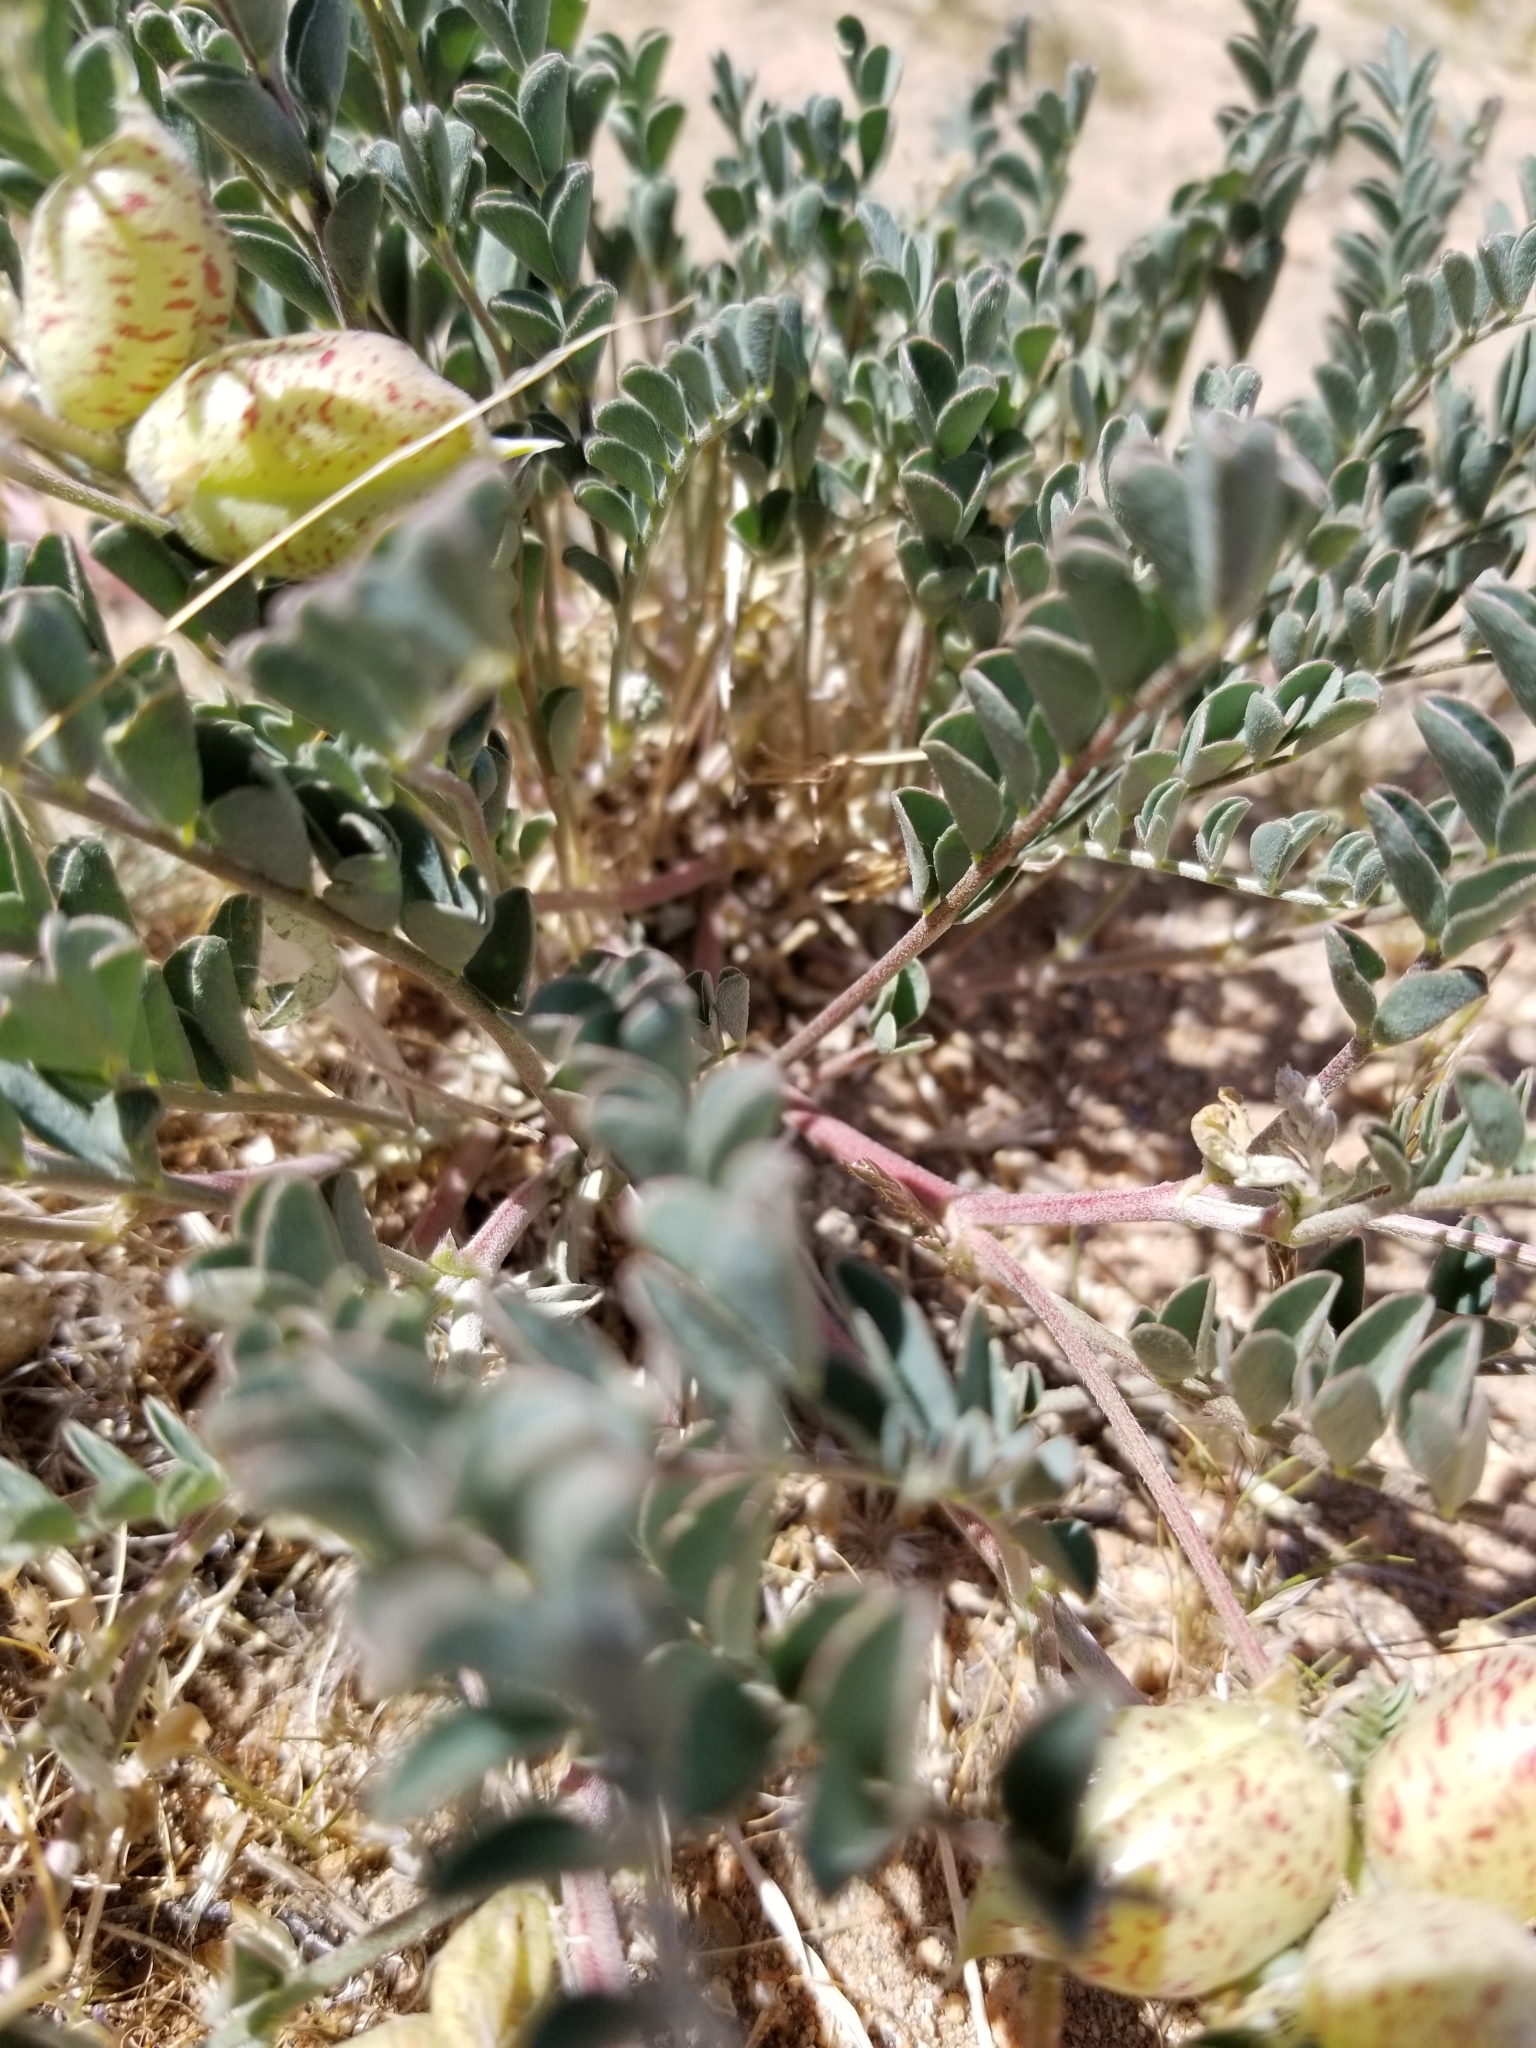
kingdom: Plantae
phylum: Tracheophyta
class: Magnoliopsida
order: Fabales
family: Fabaceae
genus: Astragalus
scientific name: Astragalus lentiginosus
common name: Freckled milkvetch
